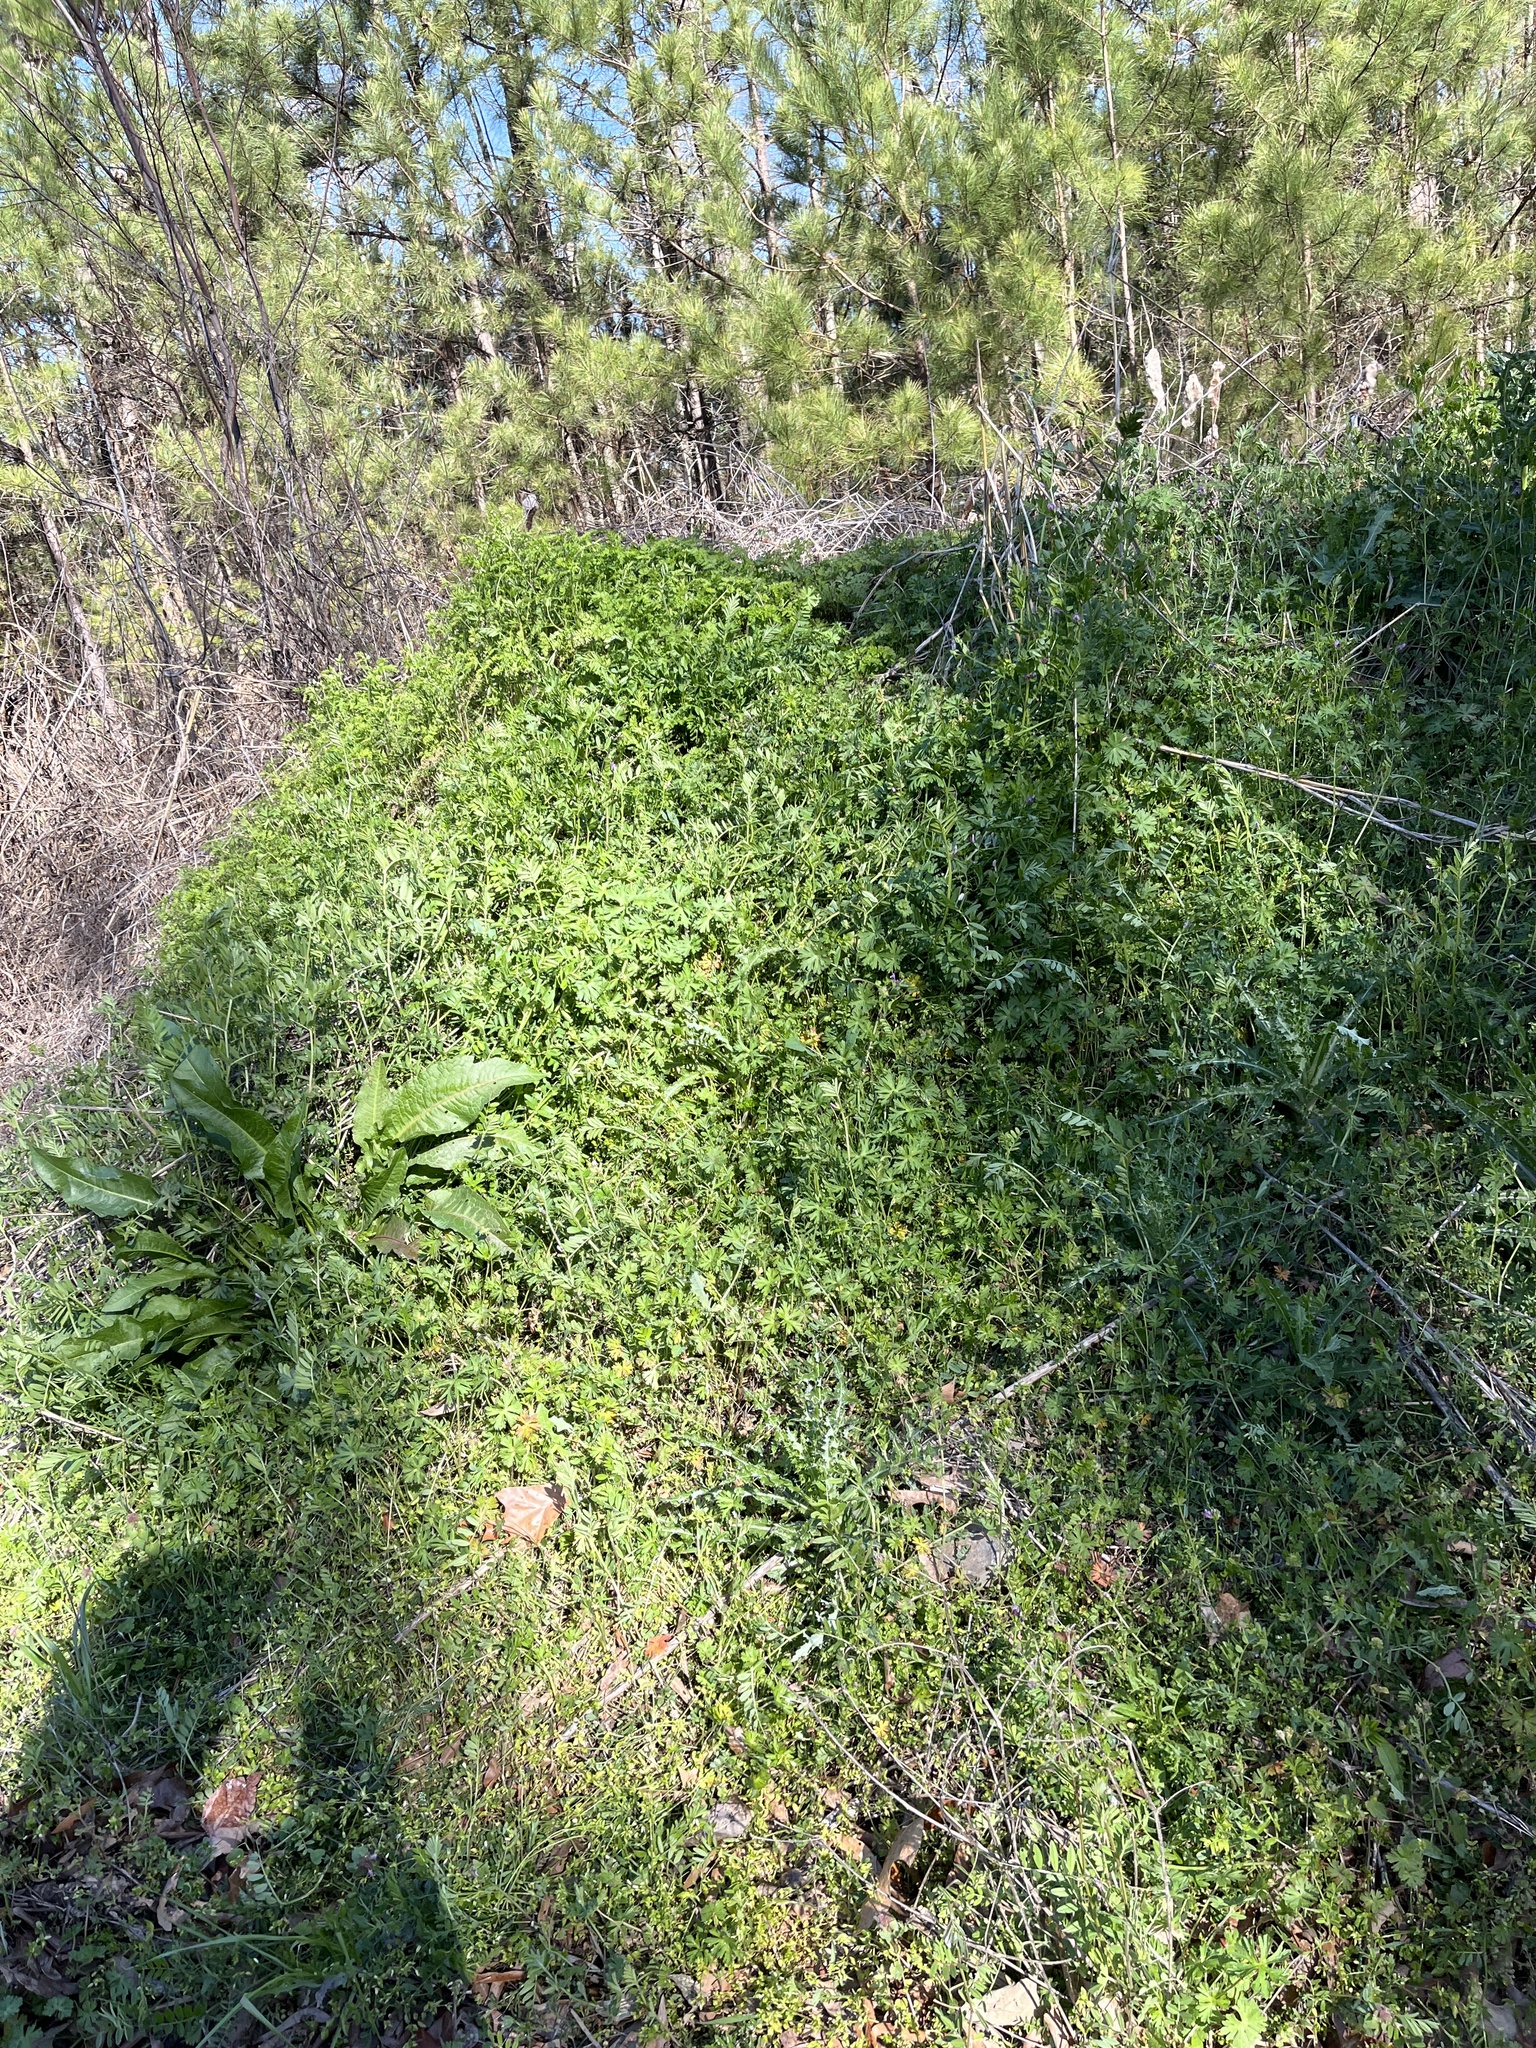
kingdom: Plantae
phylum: Tracheophyta
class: Magnoliopsida
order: Fabales
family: Fabaceae
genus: Vicia
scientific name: Vicia sativa
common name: Garden vetch
